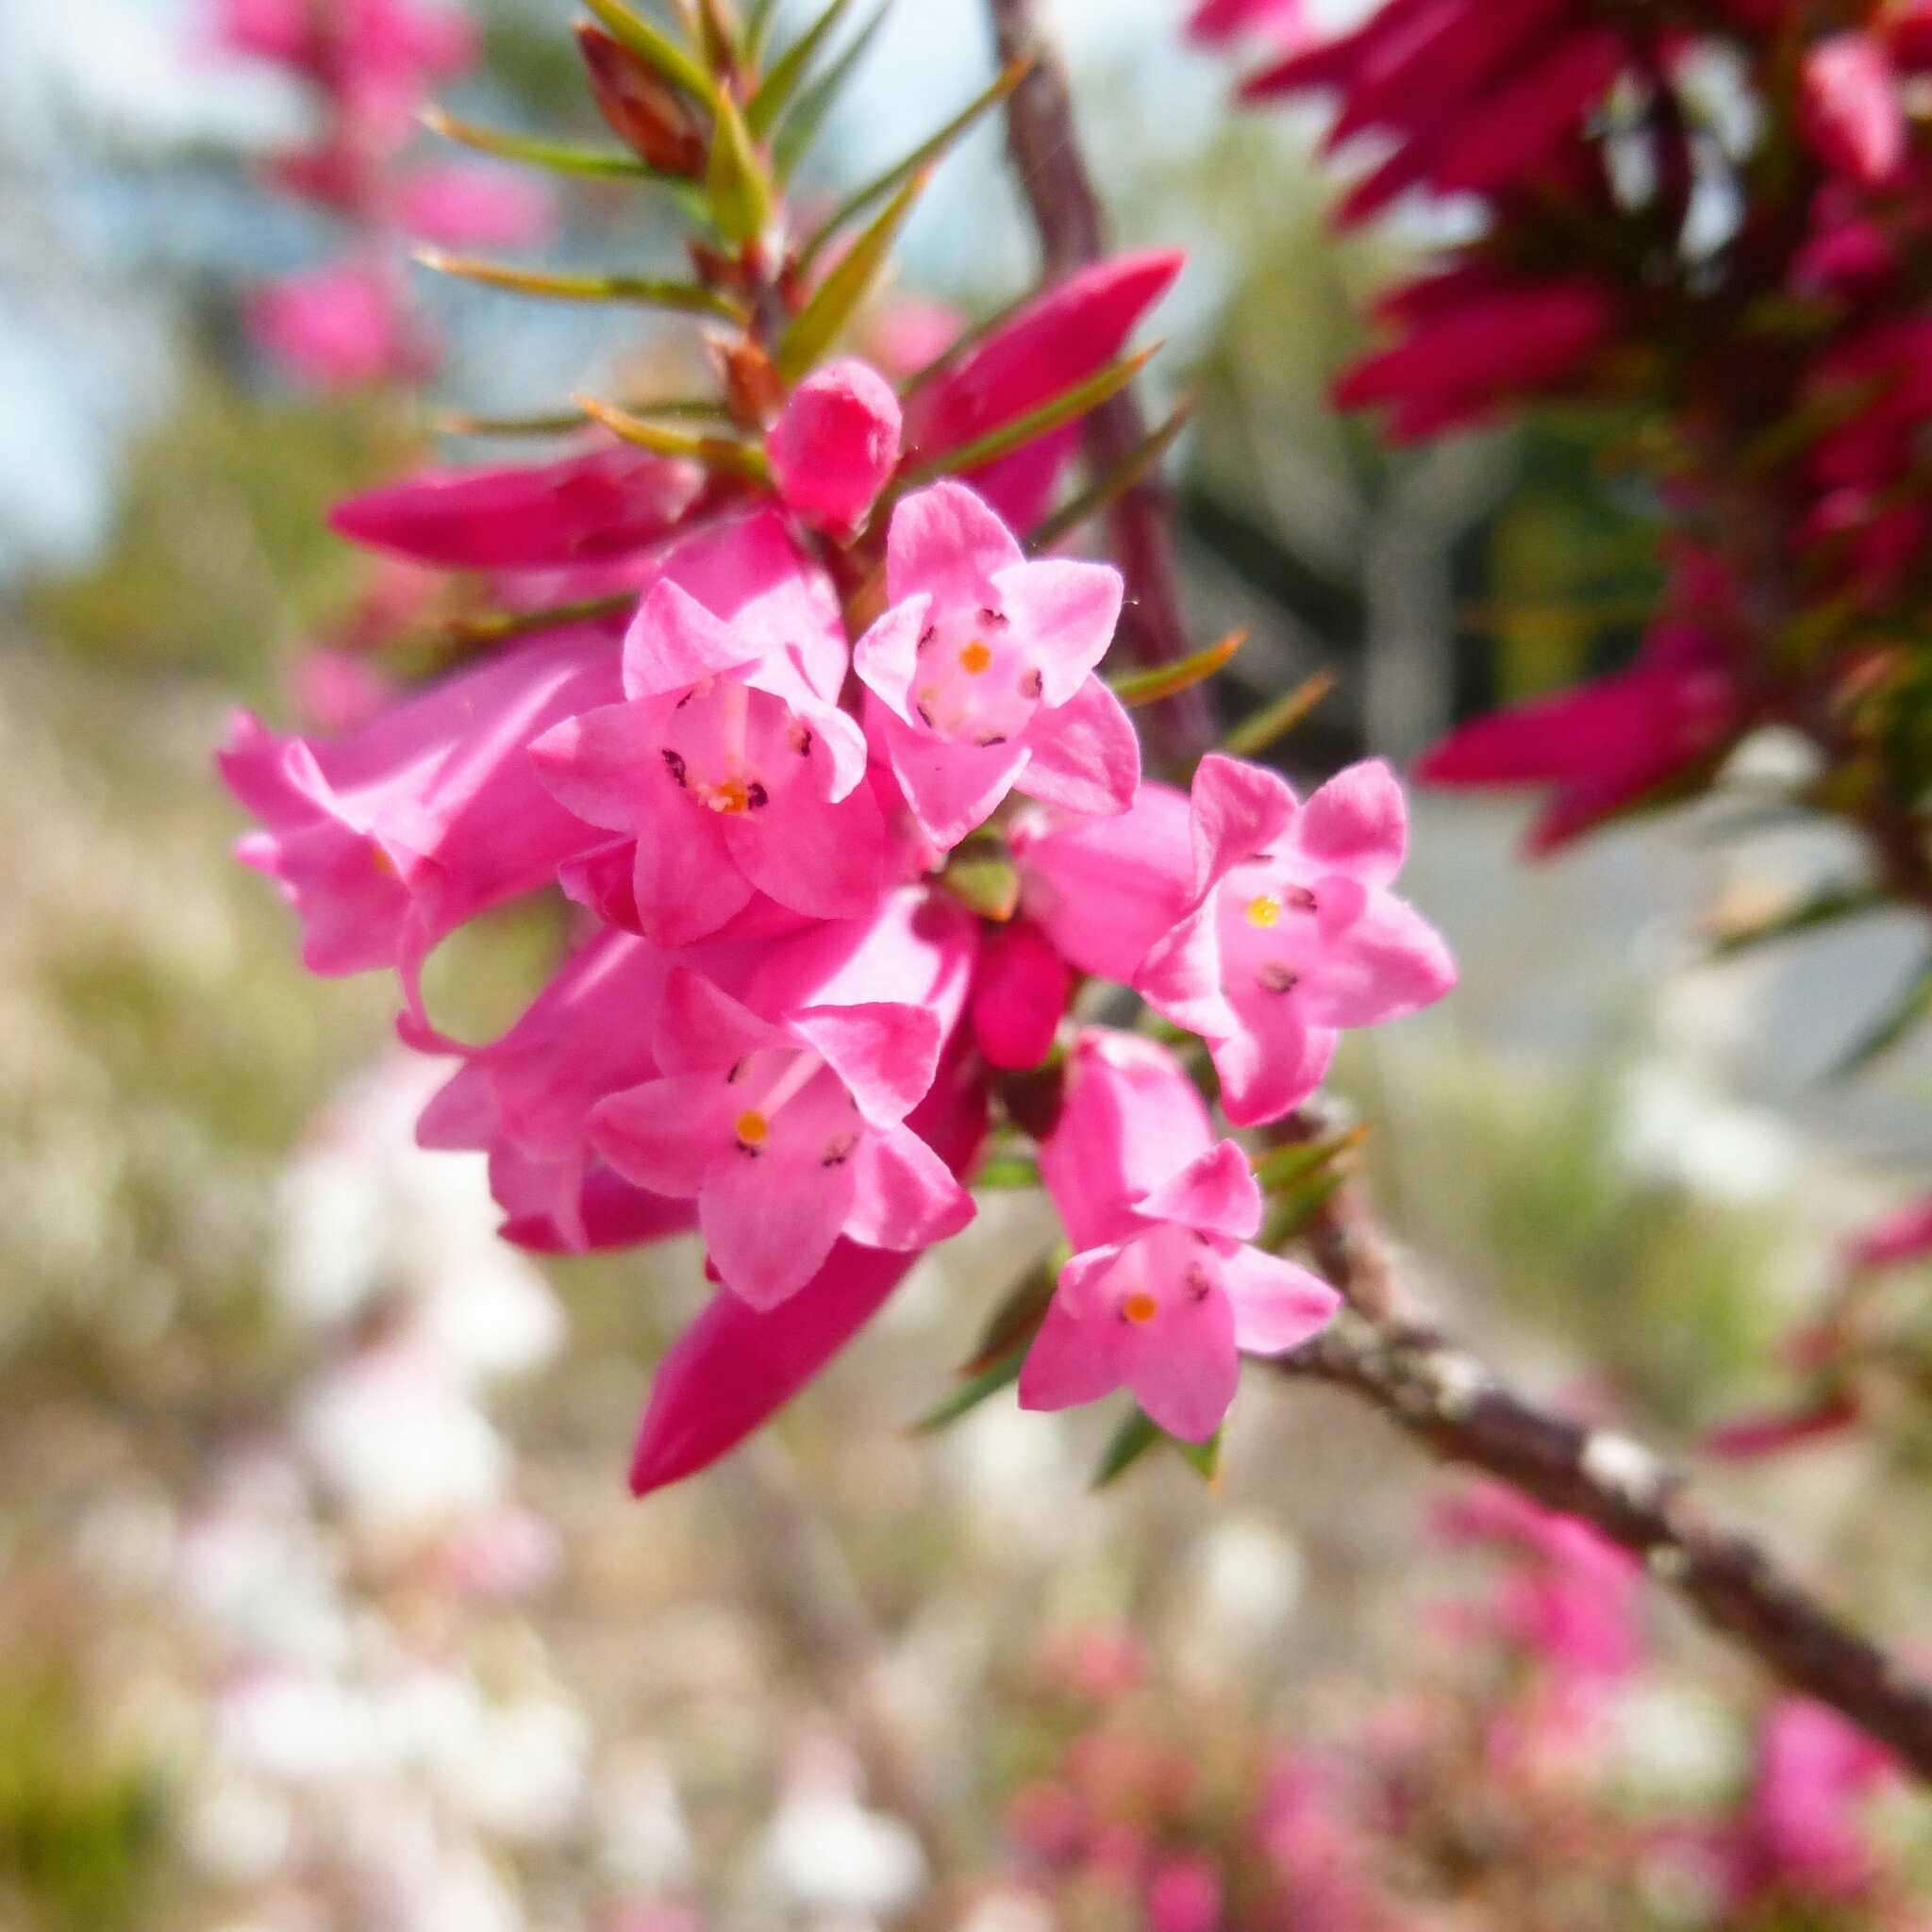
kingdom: Plantae
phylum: Tracheophyta
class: Magnoliopsida
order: Ericales
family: Ericaceae
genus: Epacris
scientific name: Epacris impressa
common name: Common-heath
